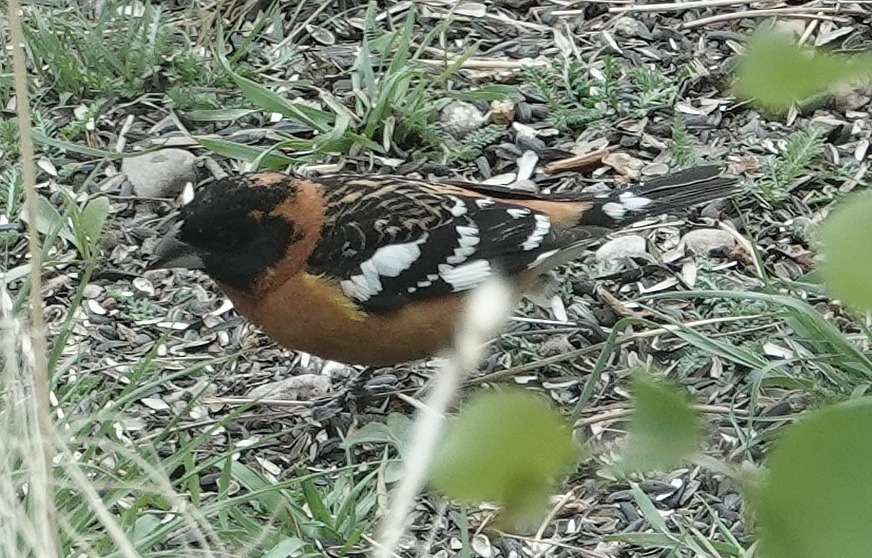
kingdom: Animalia
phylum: Chordata
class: Aves
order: Passeriformes
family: Cardinalidae
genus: Pheucticus
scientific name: Pheucticus melanocephalus
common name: Black-headed grosbeak
